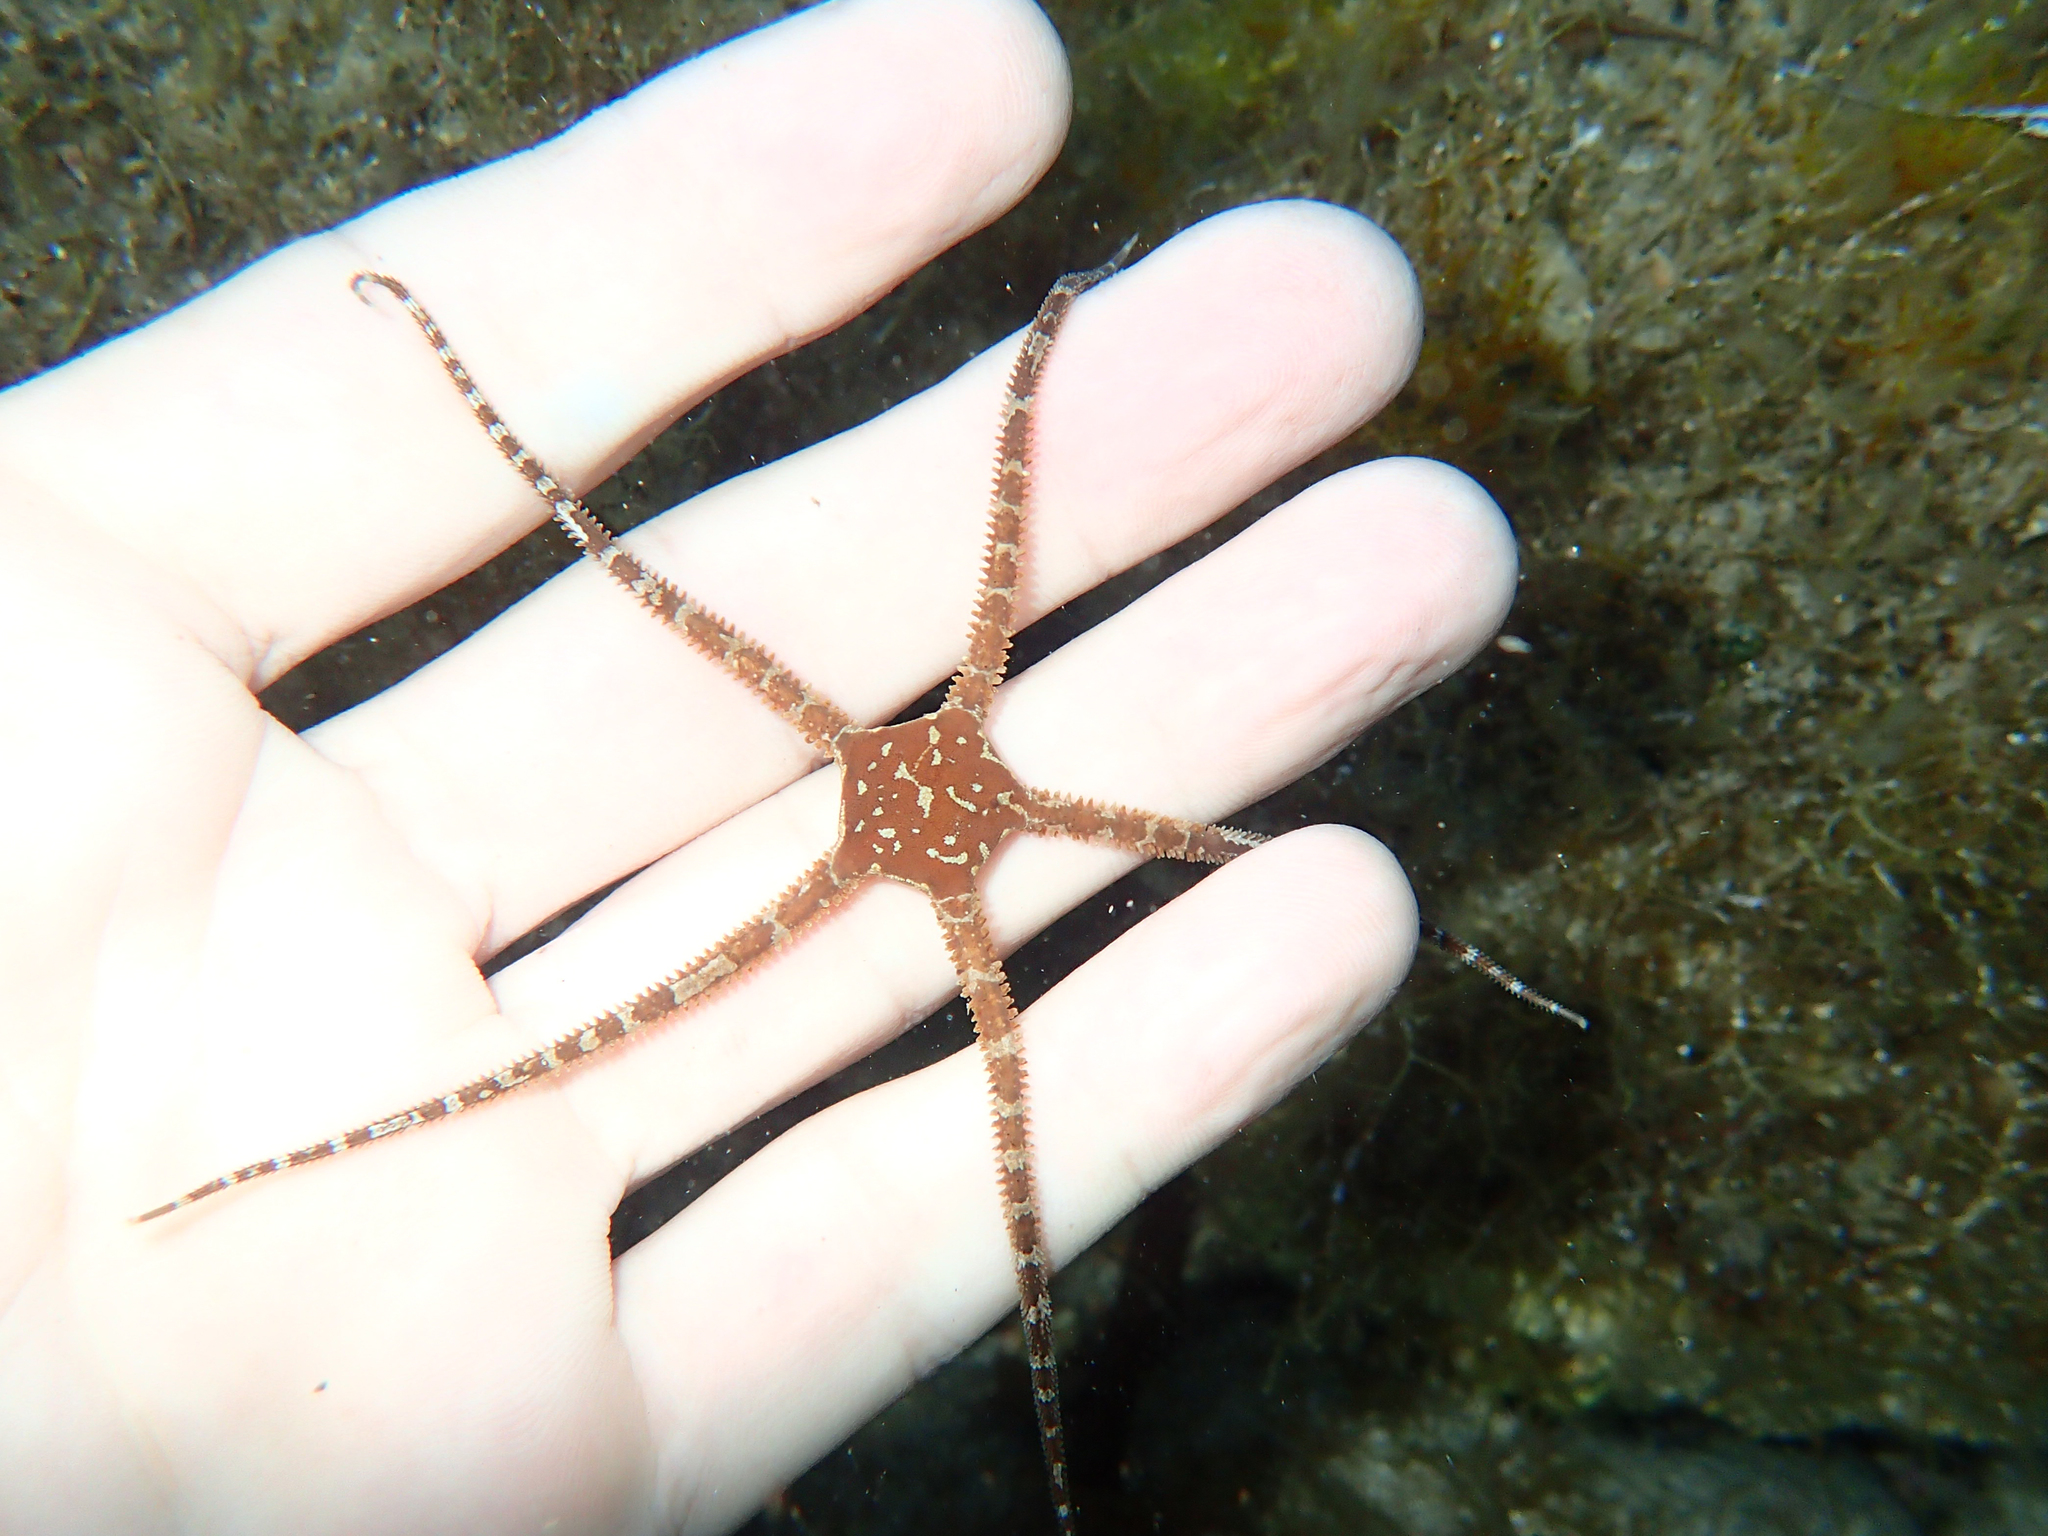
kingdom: Animalia
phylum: Echinodermata
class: Ophiuroidea
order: Ophiacanthida
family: Ophiodermatidae
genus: Ophioderma
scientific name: Ophioderma longicaudum
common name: Smooth brittle-star
